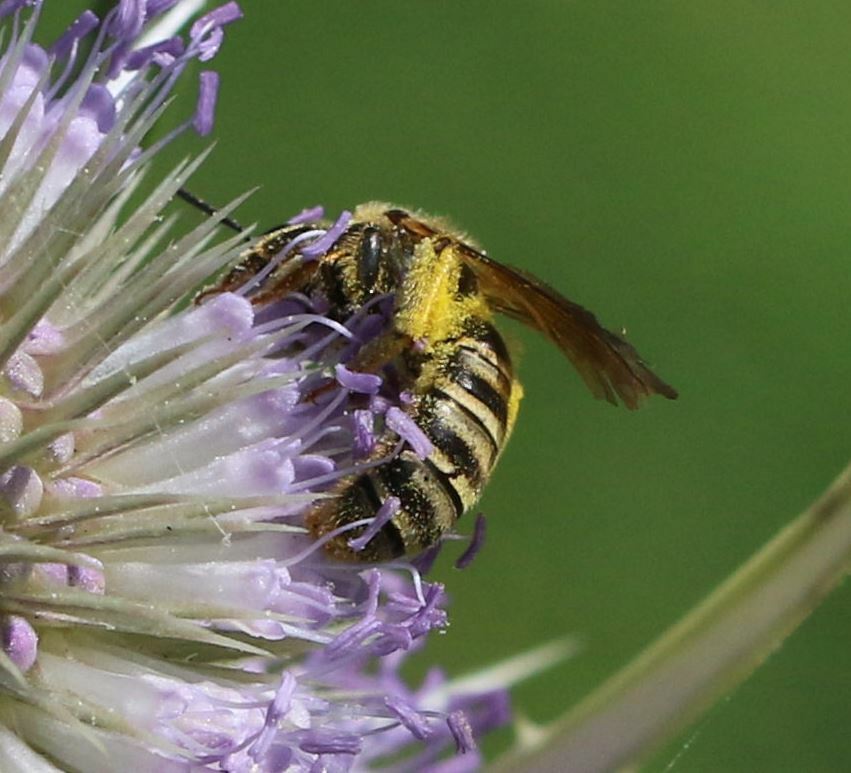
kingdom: Animalia
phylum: Arthropoda
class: Insecta
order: Hymenoptera
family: Halictidae
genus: Halictus
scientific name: Halictus scabiosae
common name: Great banded furrow bee
